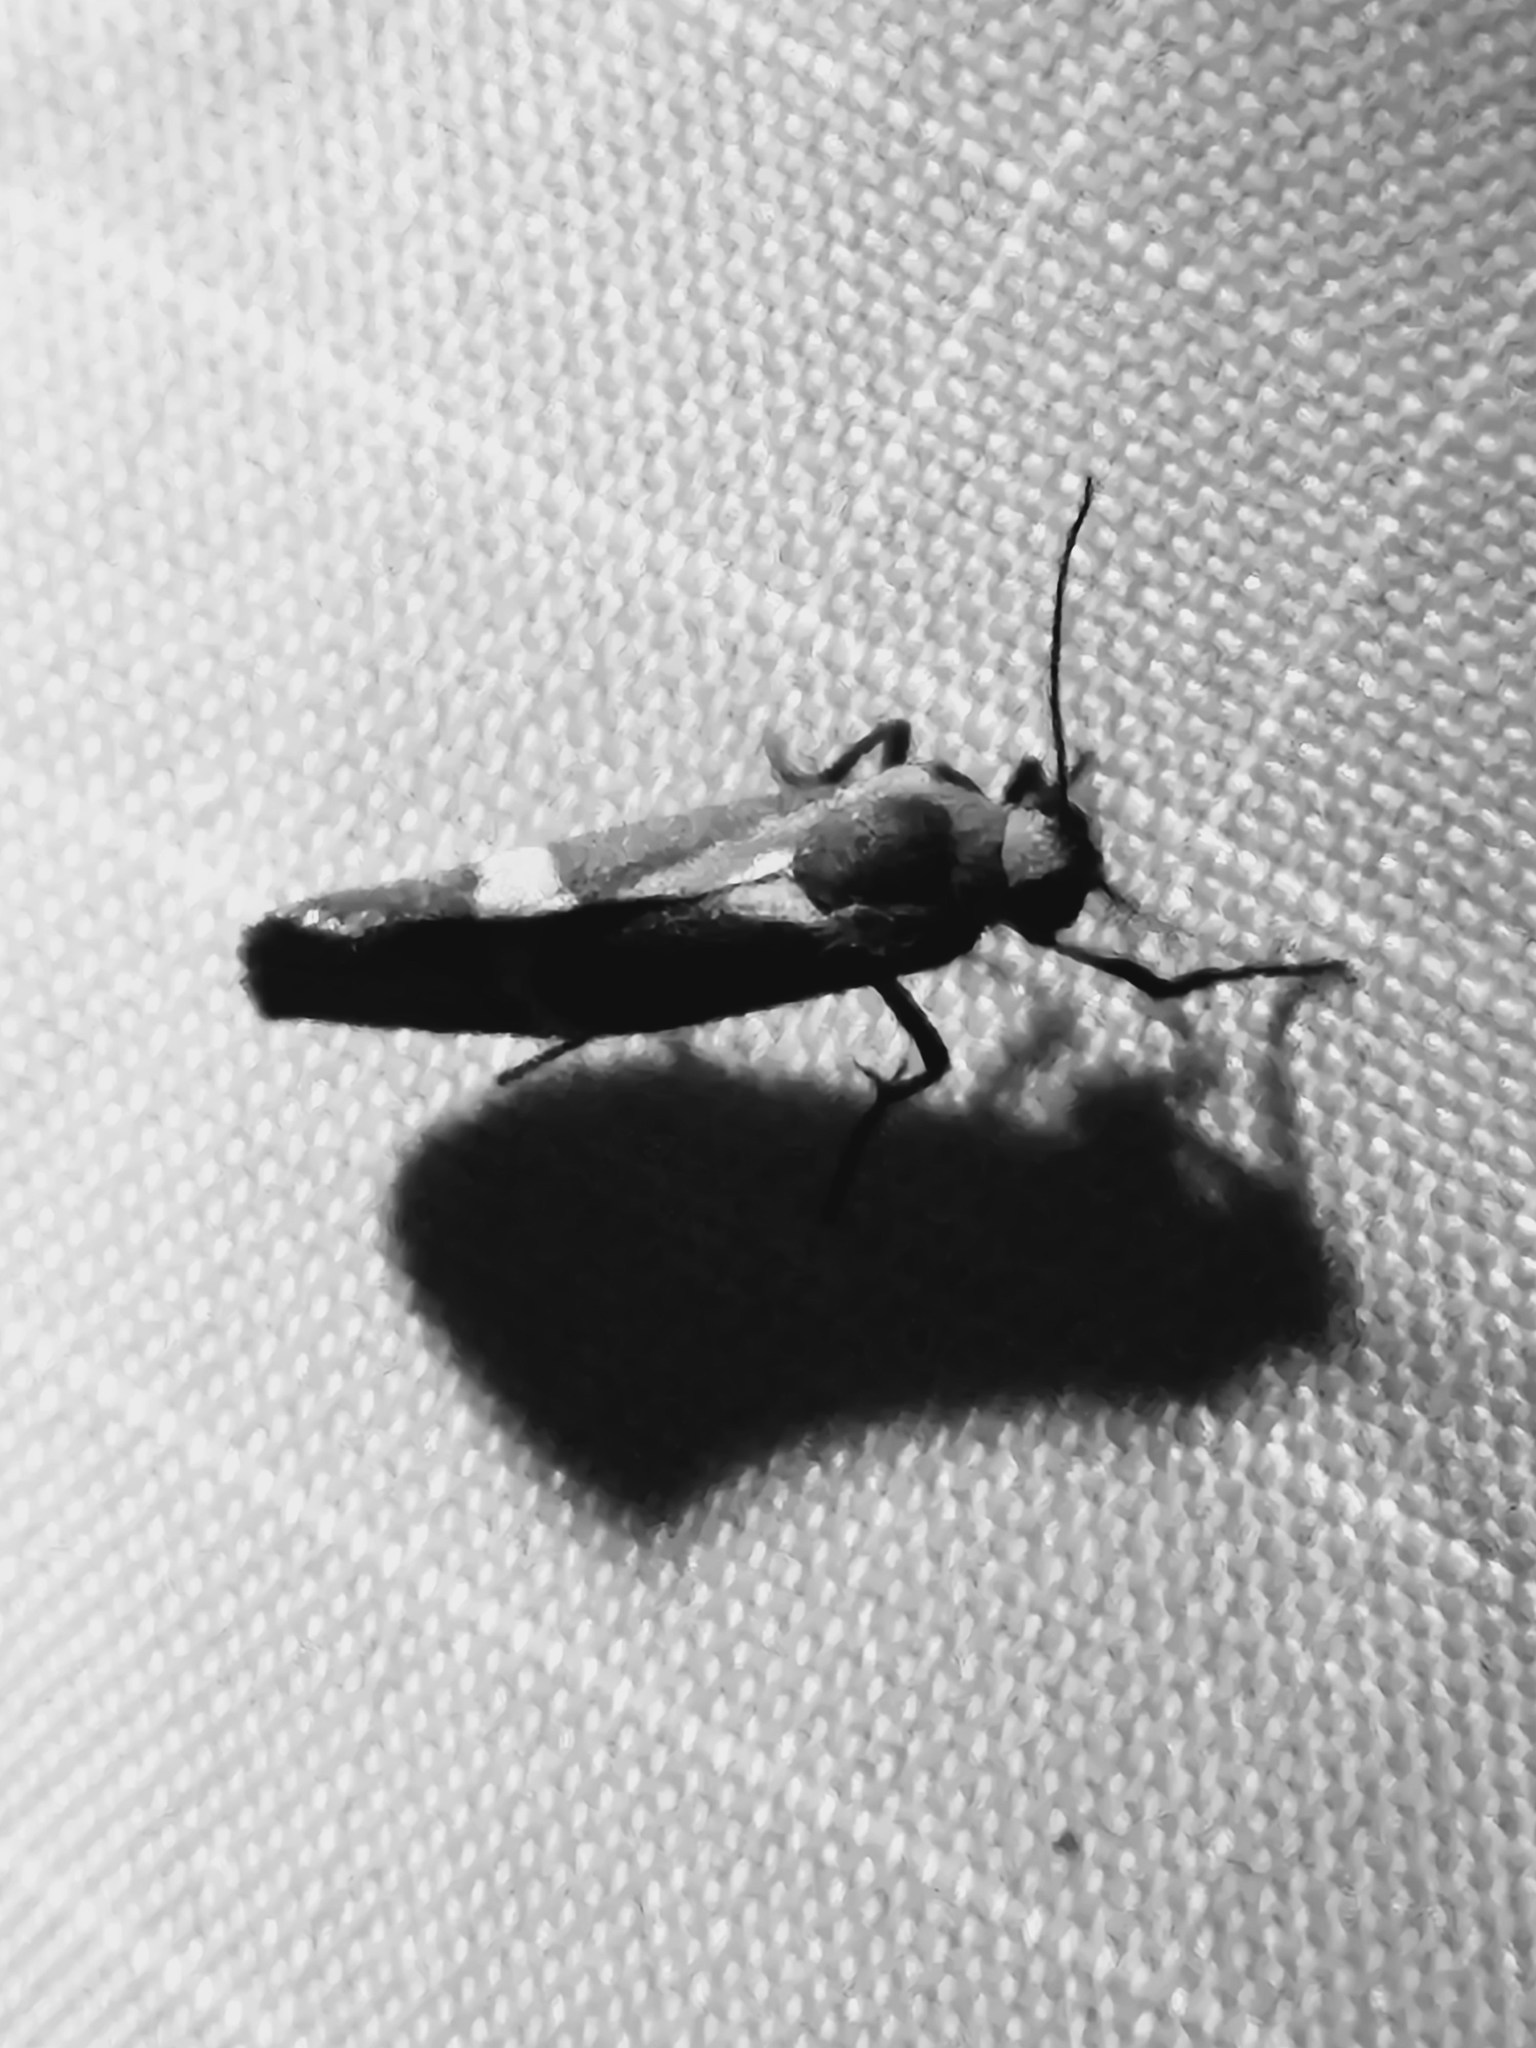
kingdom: Animalia
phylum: Arthropoda
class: Insecta
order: Lepidoptera
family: Erebidae
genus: Cisthene
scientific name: Cisthene tenuifascia
